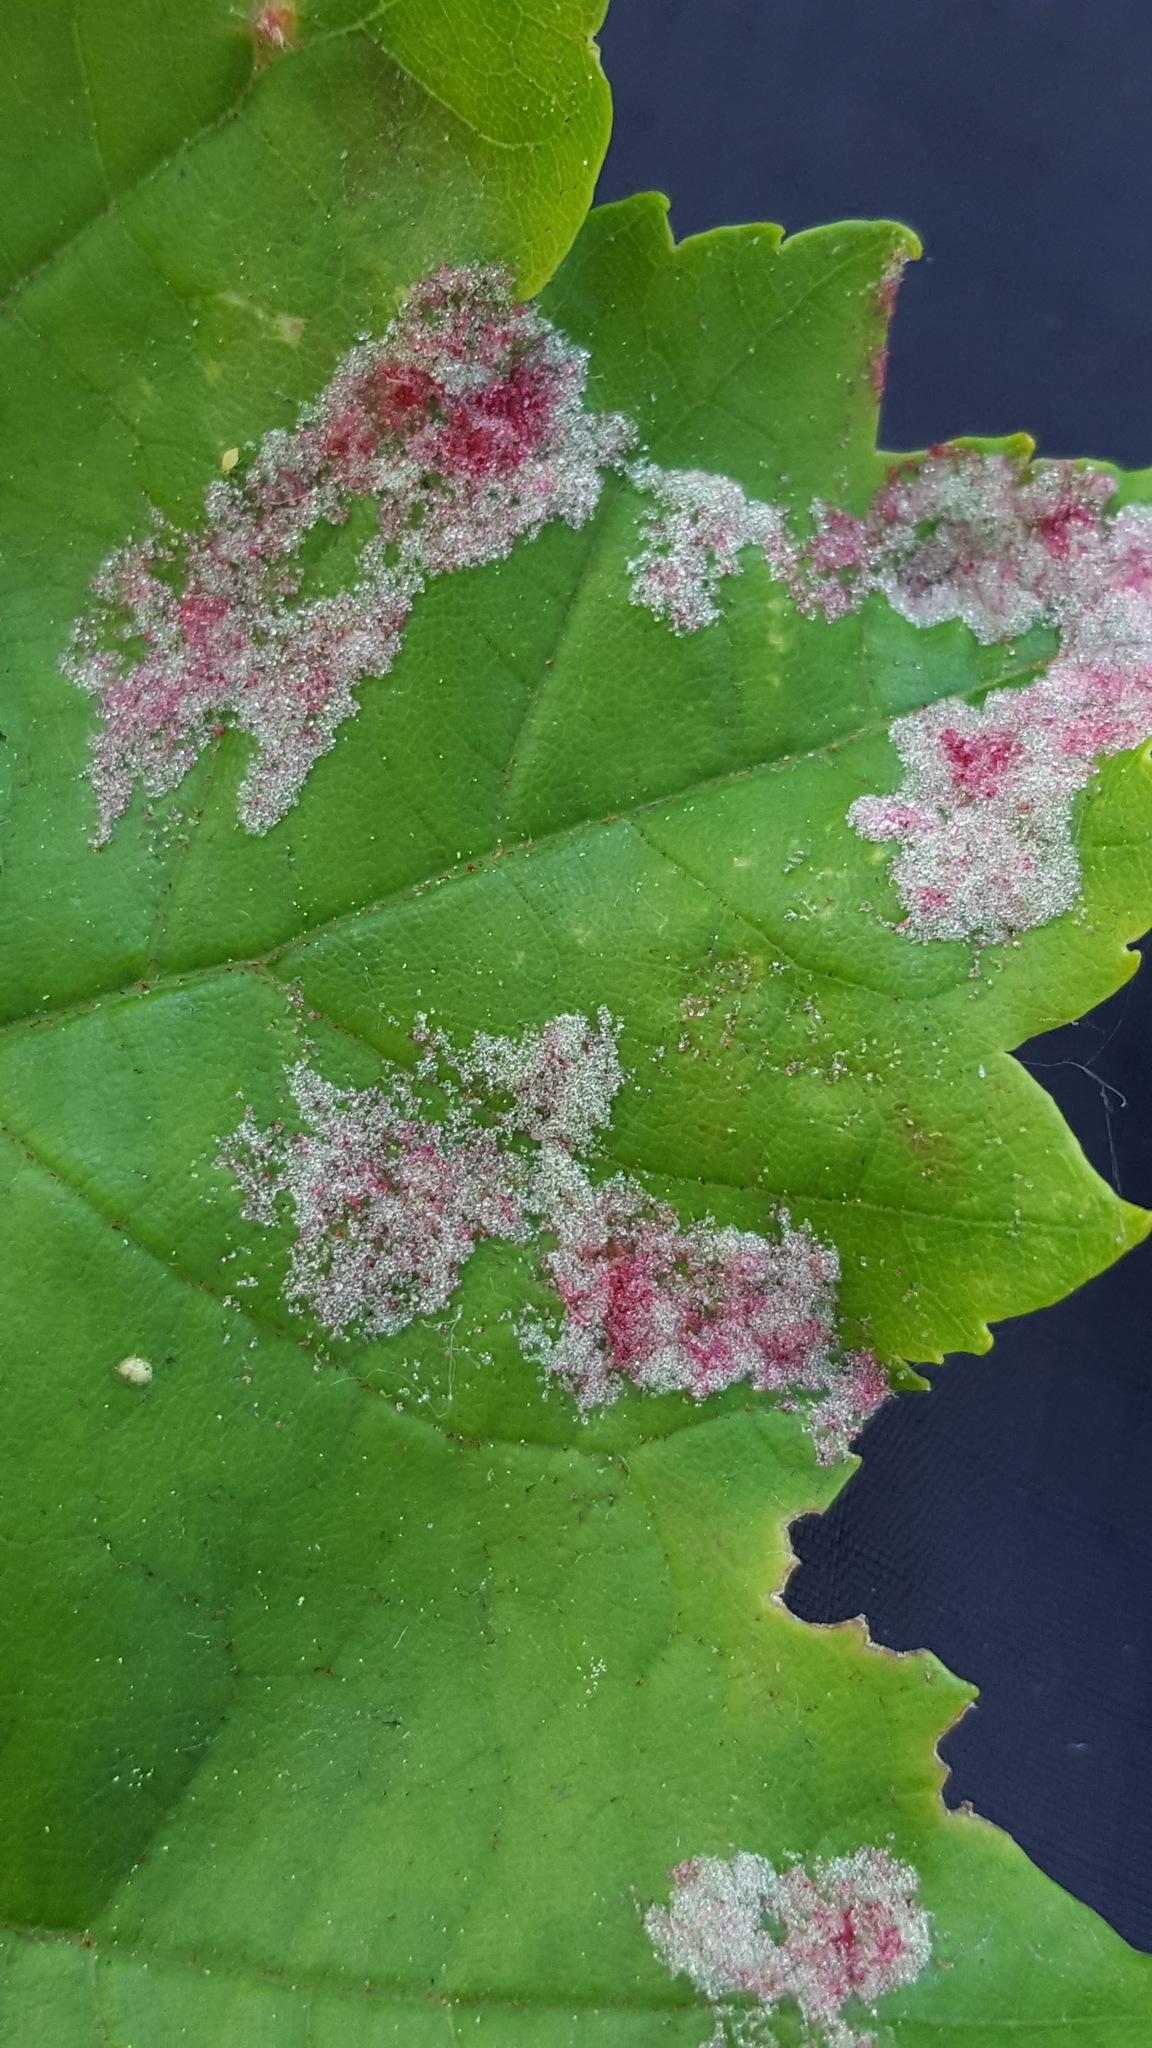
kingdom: Animalia
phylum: Arthropoda
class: Arachnida
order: Trombidiformes
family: Eriophyidae
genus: Aculus
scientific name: Aculus
